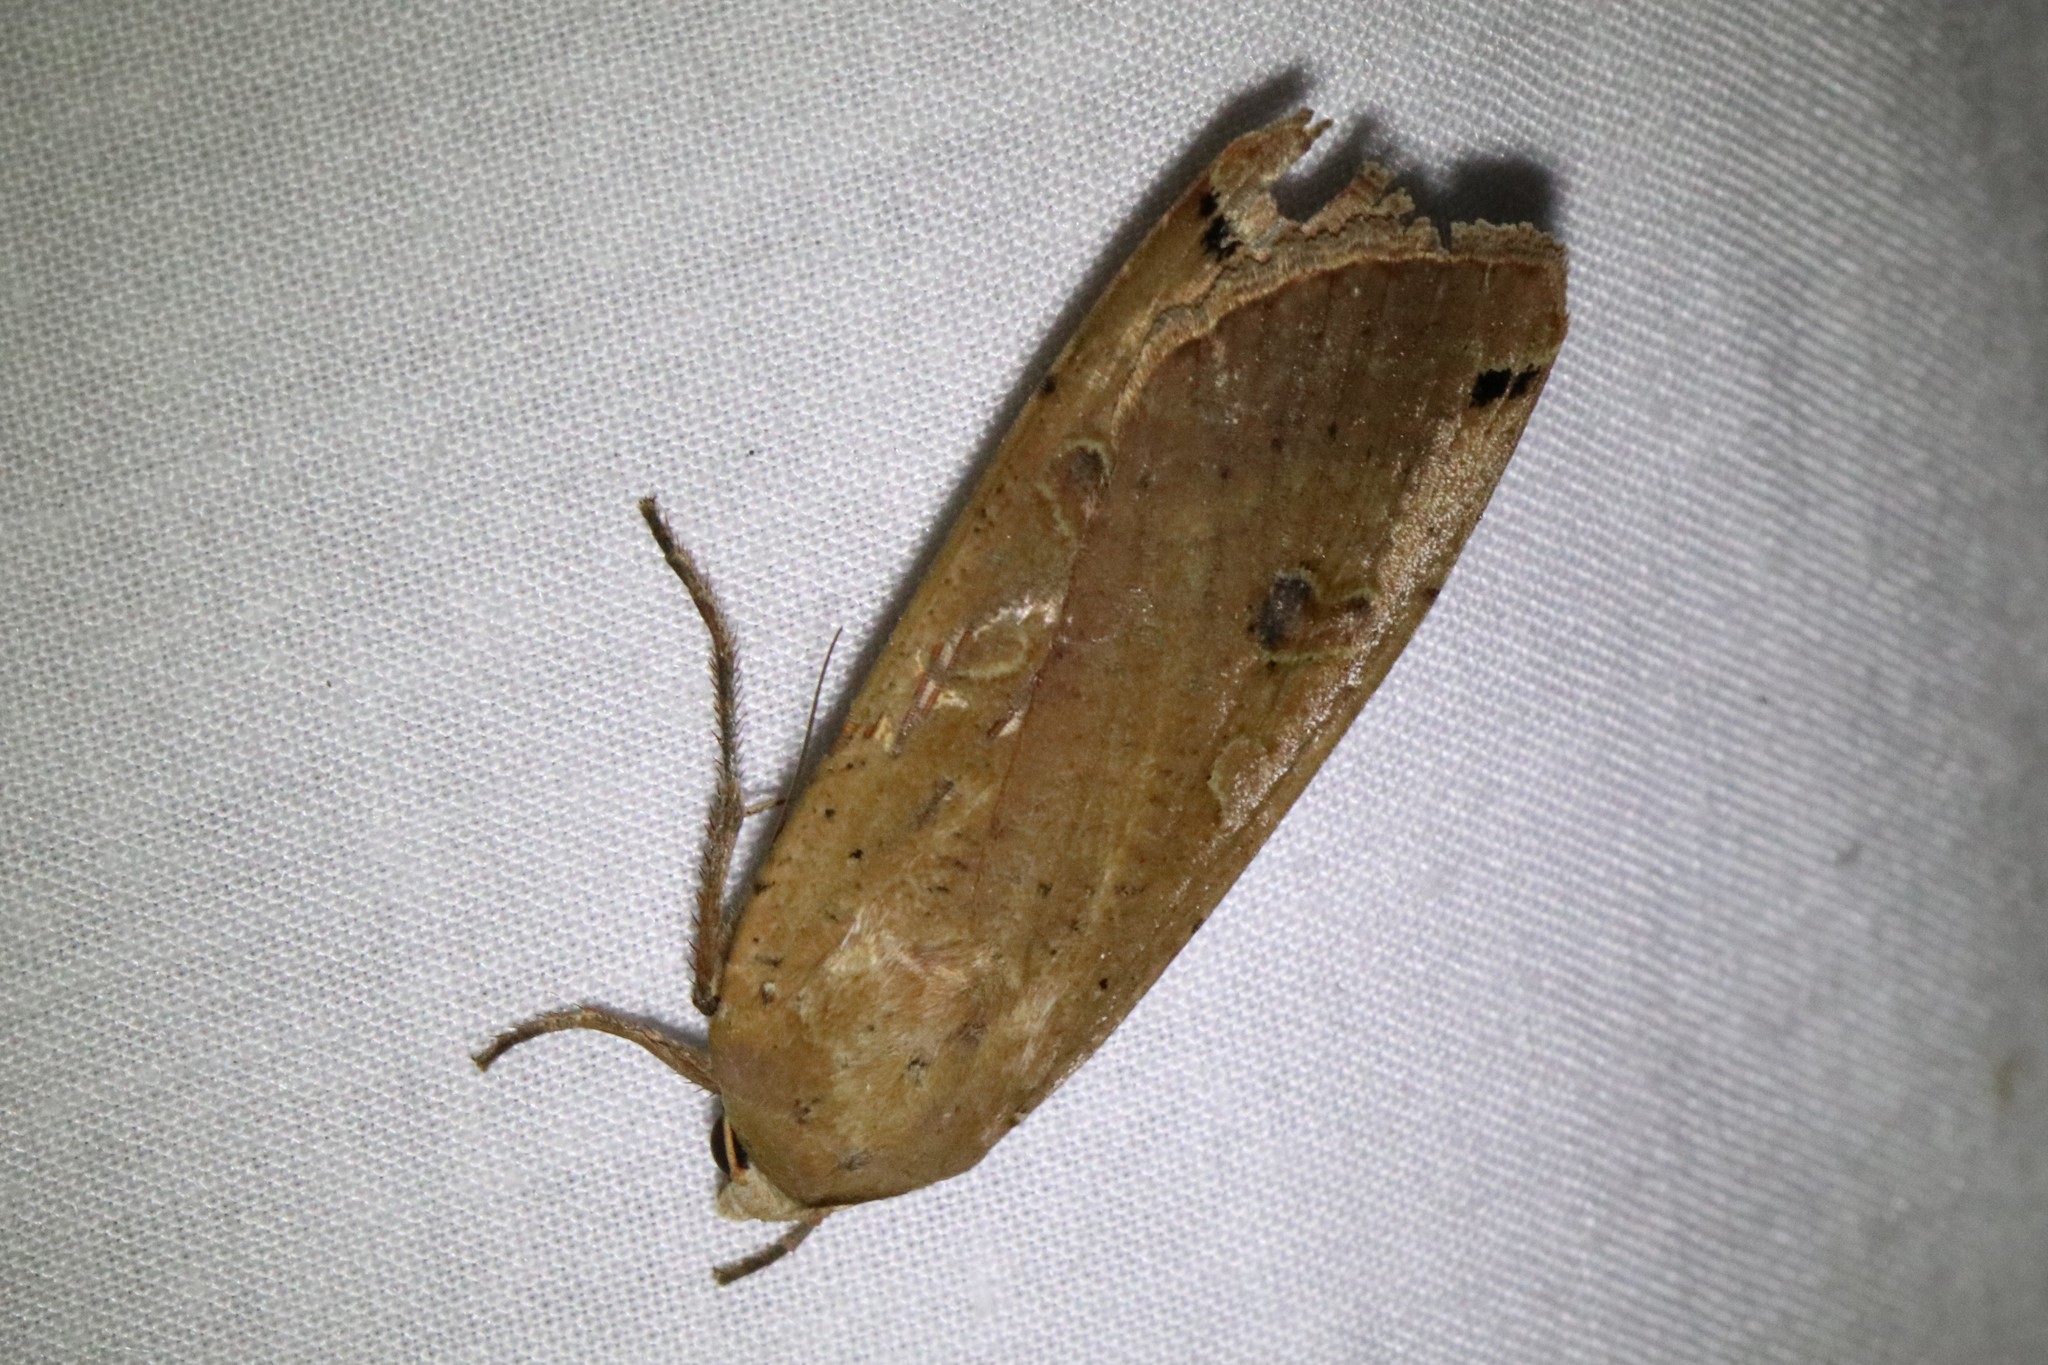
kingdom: Animalia
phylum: Arthropoda
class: Insecta
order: Lepidoptera
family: Noctuidae
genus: Noctua
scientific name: Noctua pronuba
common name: Large yellow underwing
